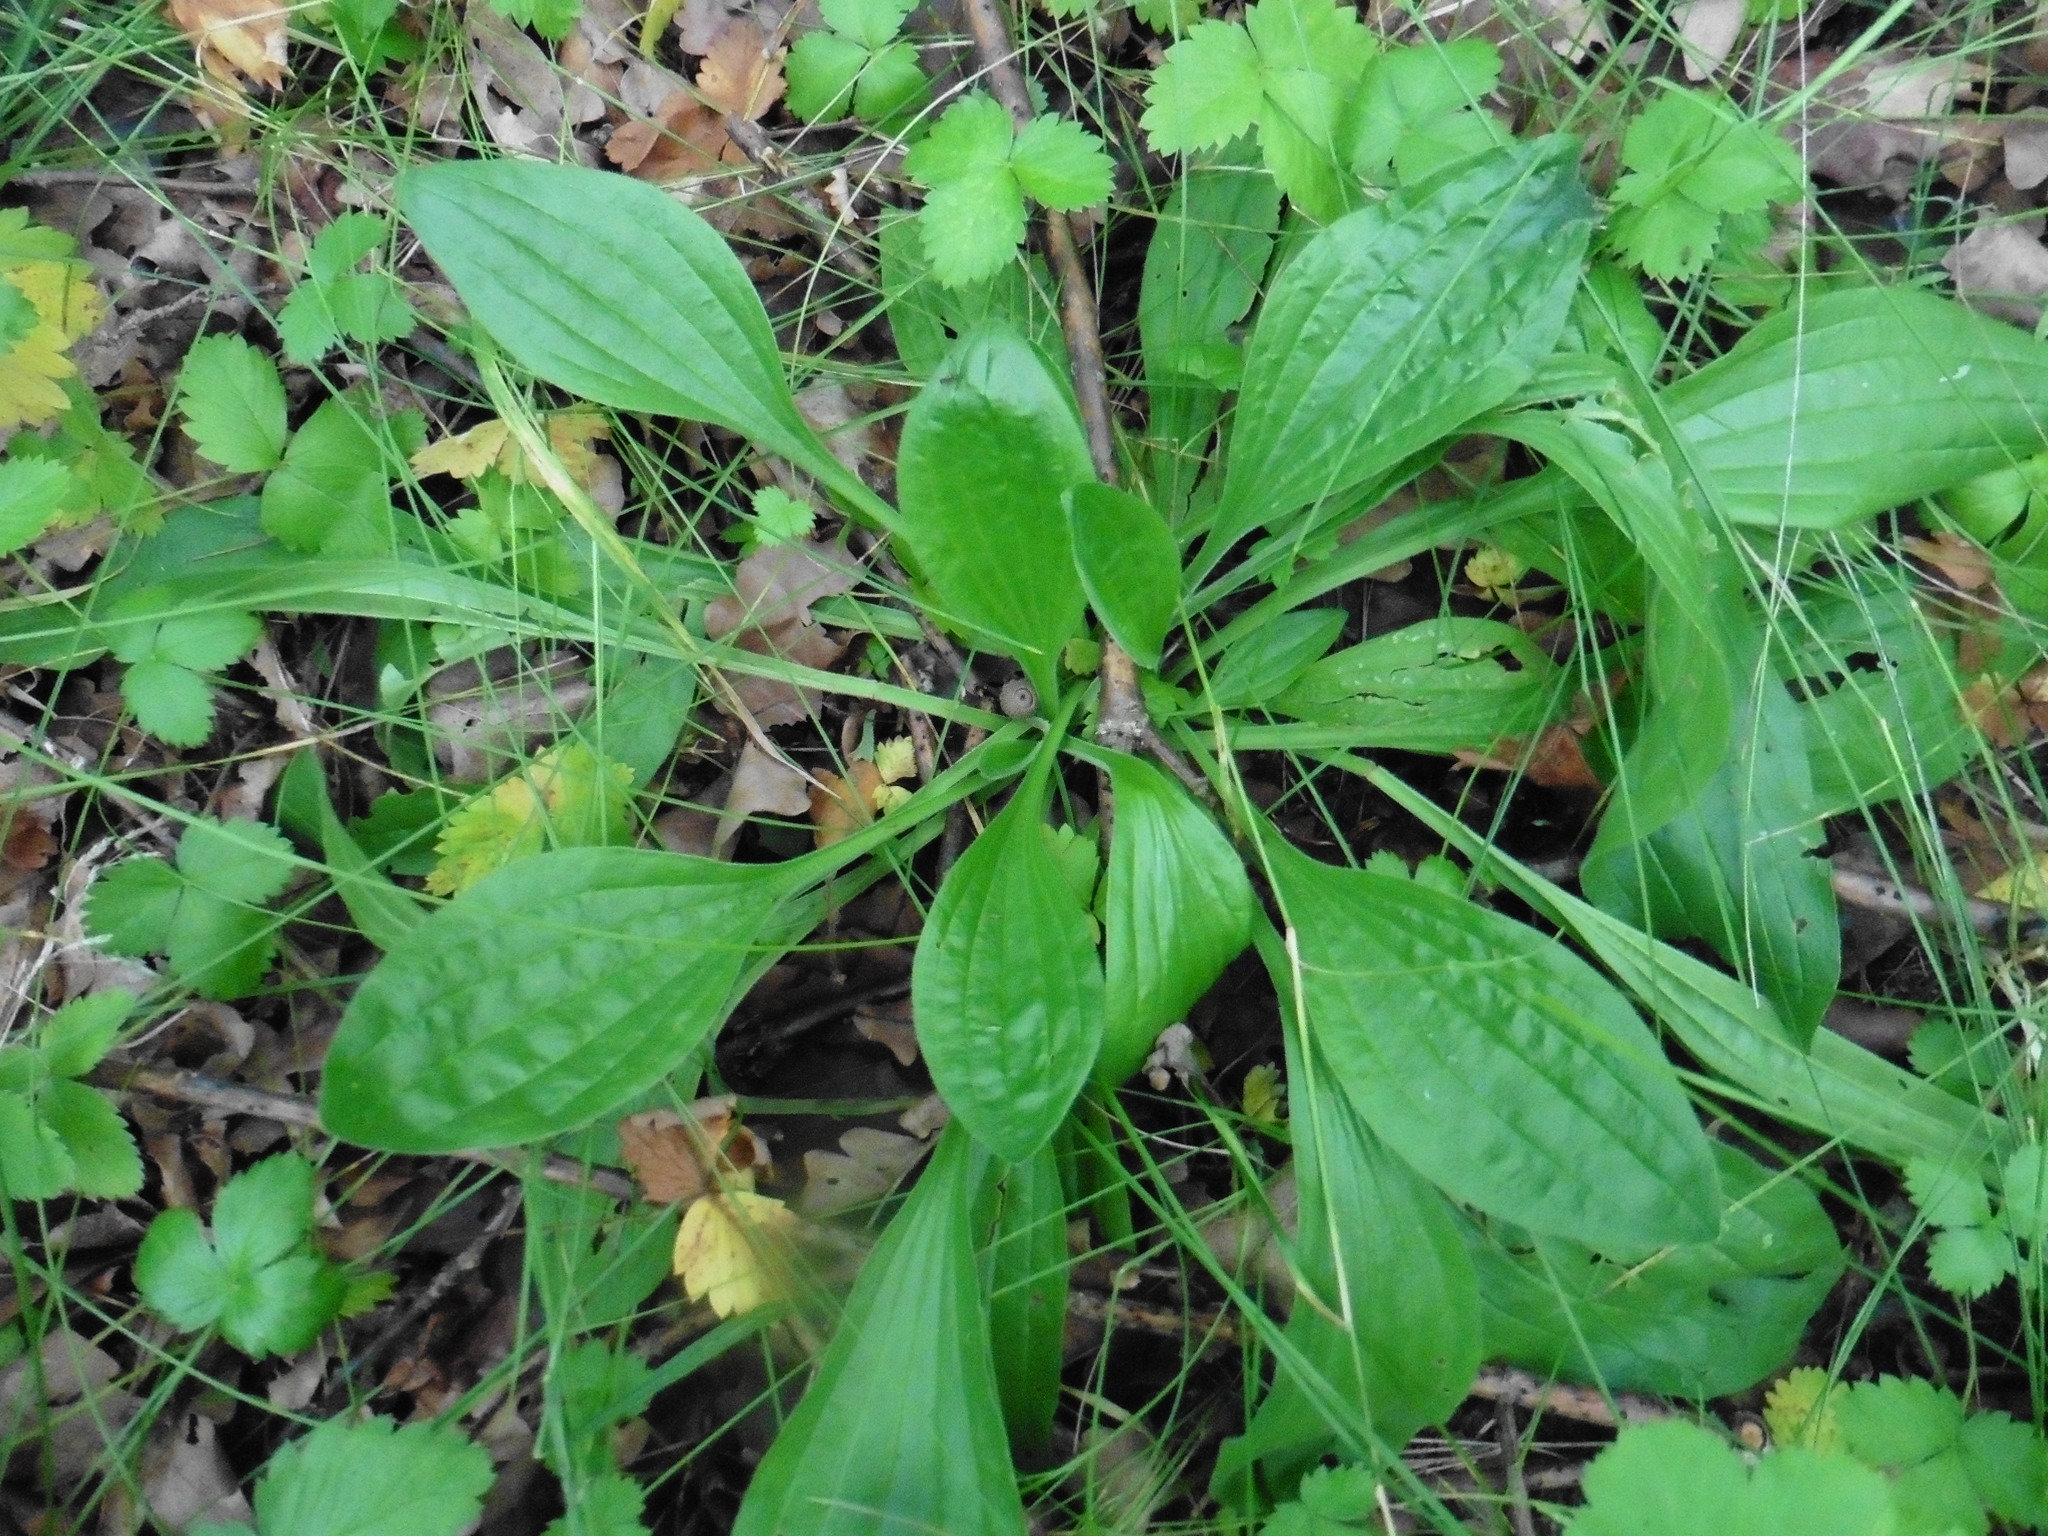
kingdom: Plantae
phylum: Tracheophyta
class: Magnoliopsida
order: Lamiales
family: Plantaginaceae
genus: Plantago
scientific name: Plantago media
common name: Hoary plantain
